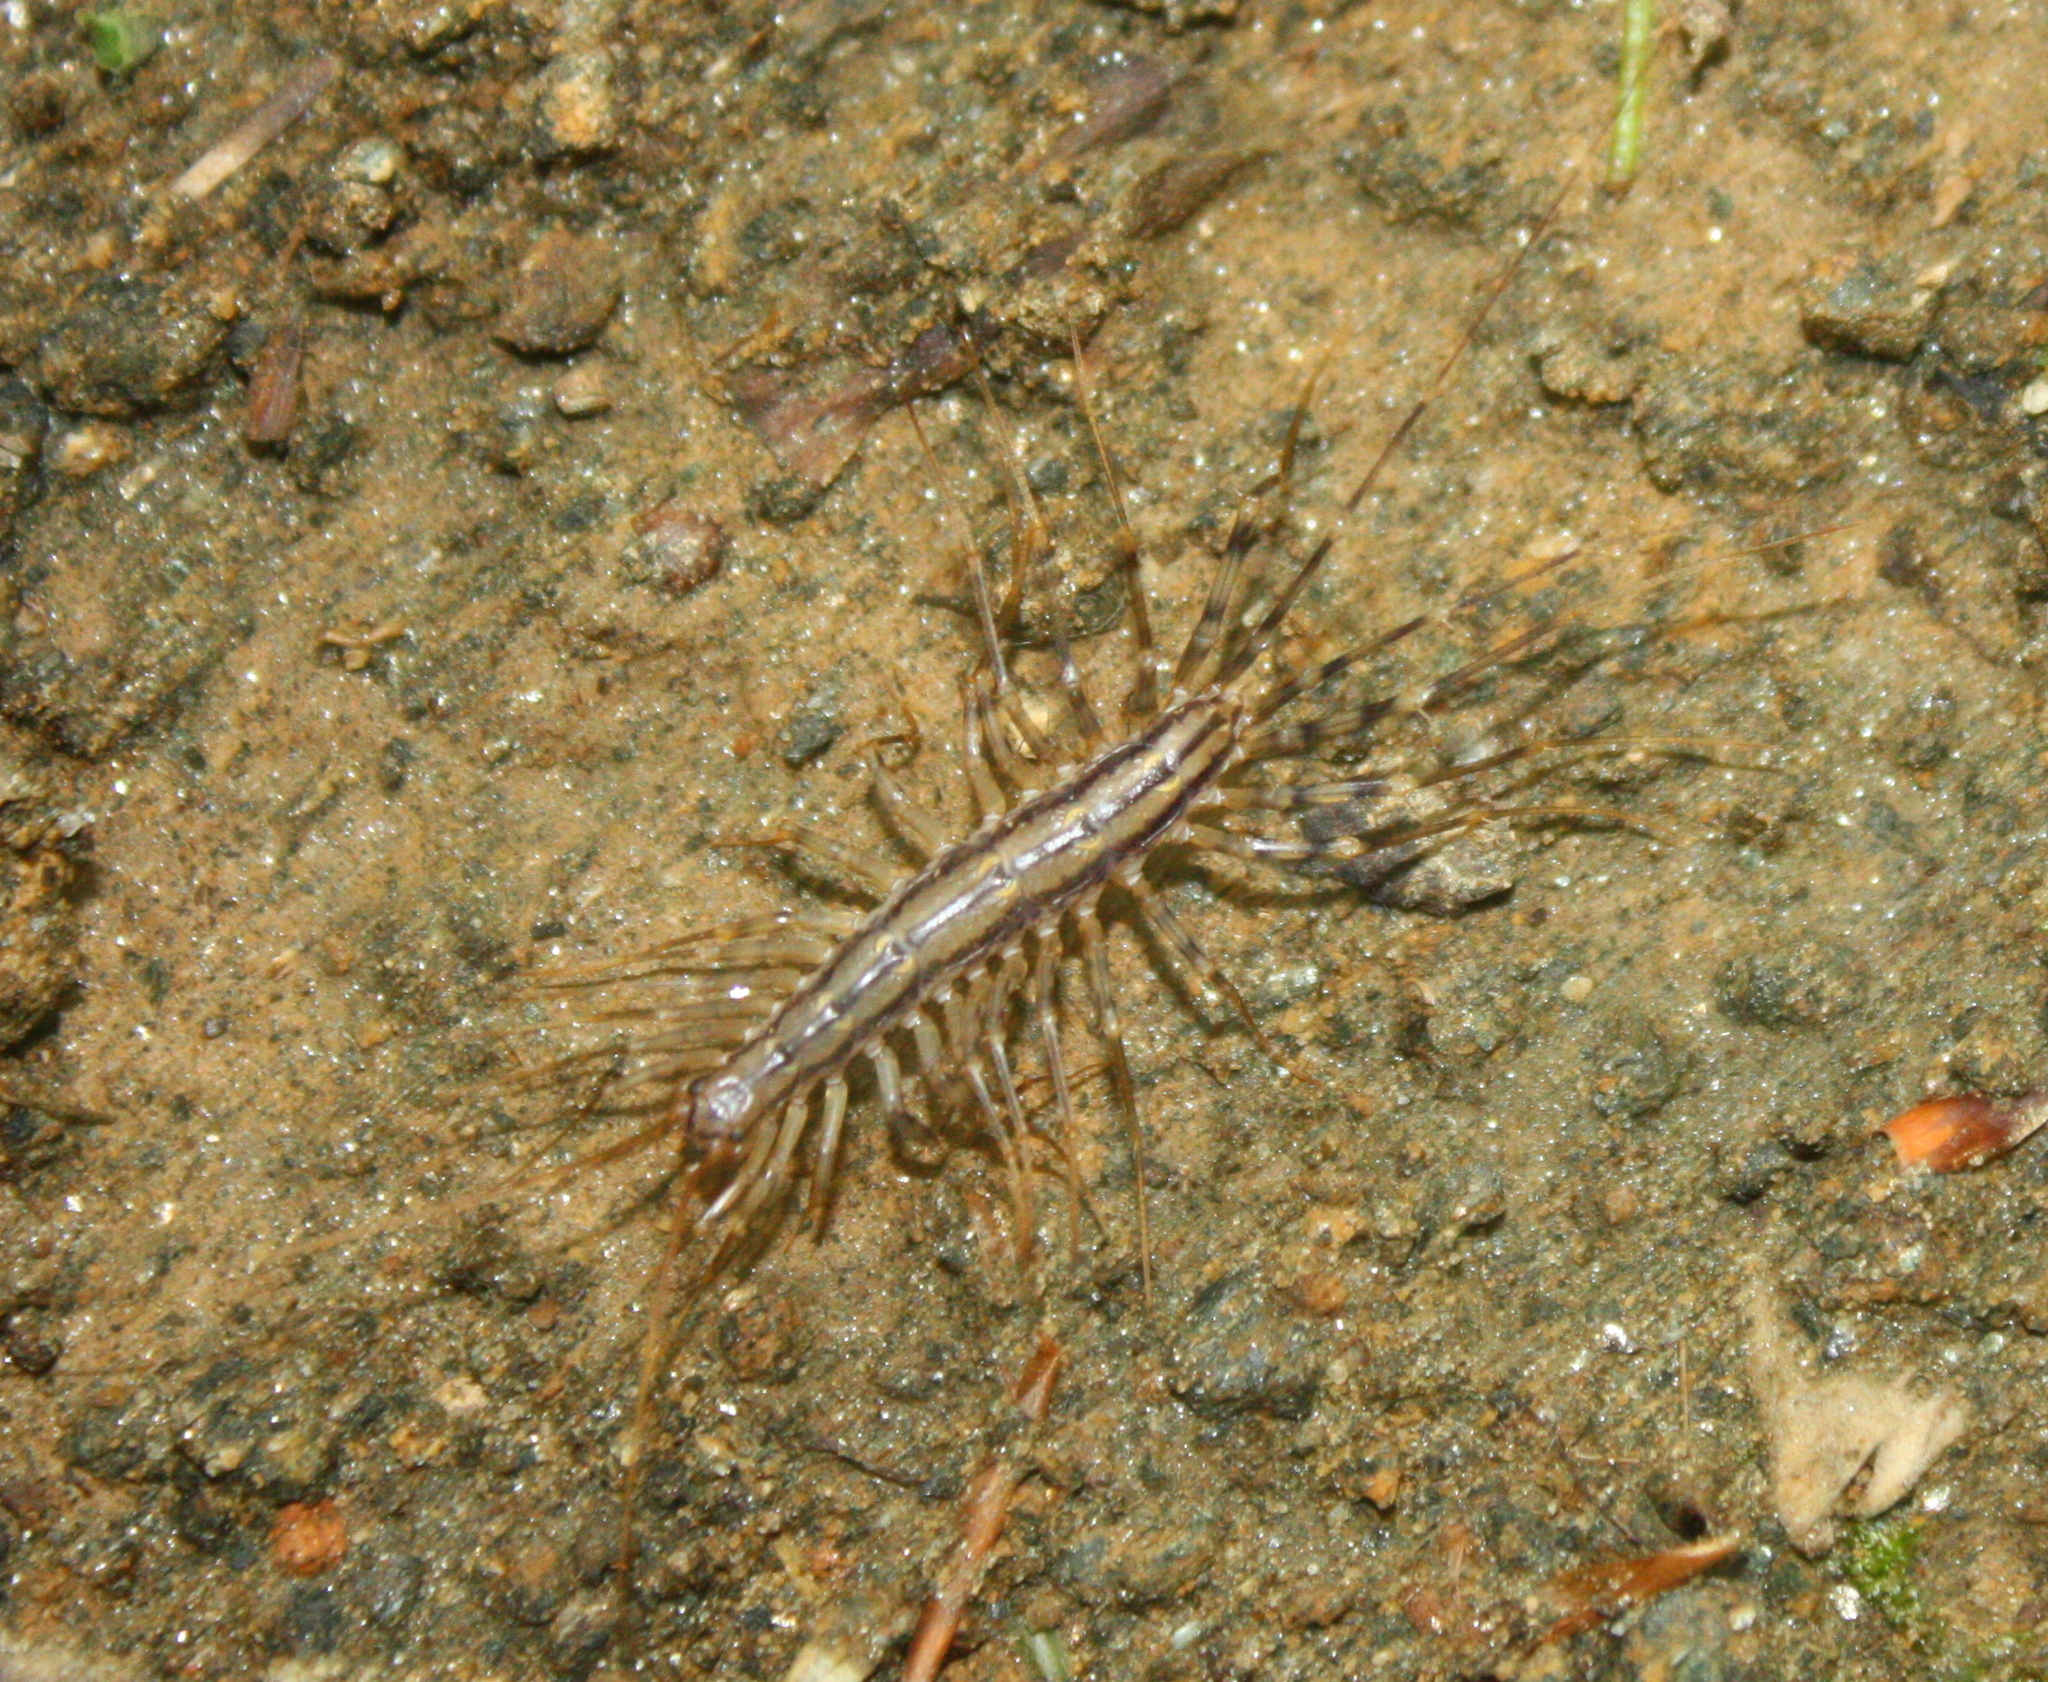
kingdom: Animalia
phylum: Arthropoda
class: Chilopoda
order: Scutigeromorpha
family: Scutigeridae
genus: Scutigera
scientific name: Scutigera coleoptrata
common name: House centipede
